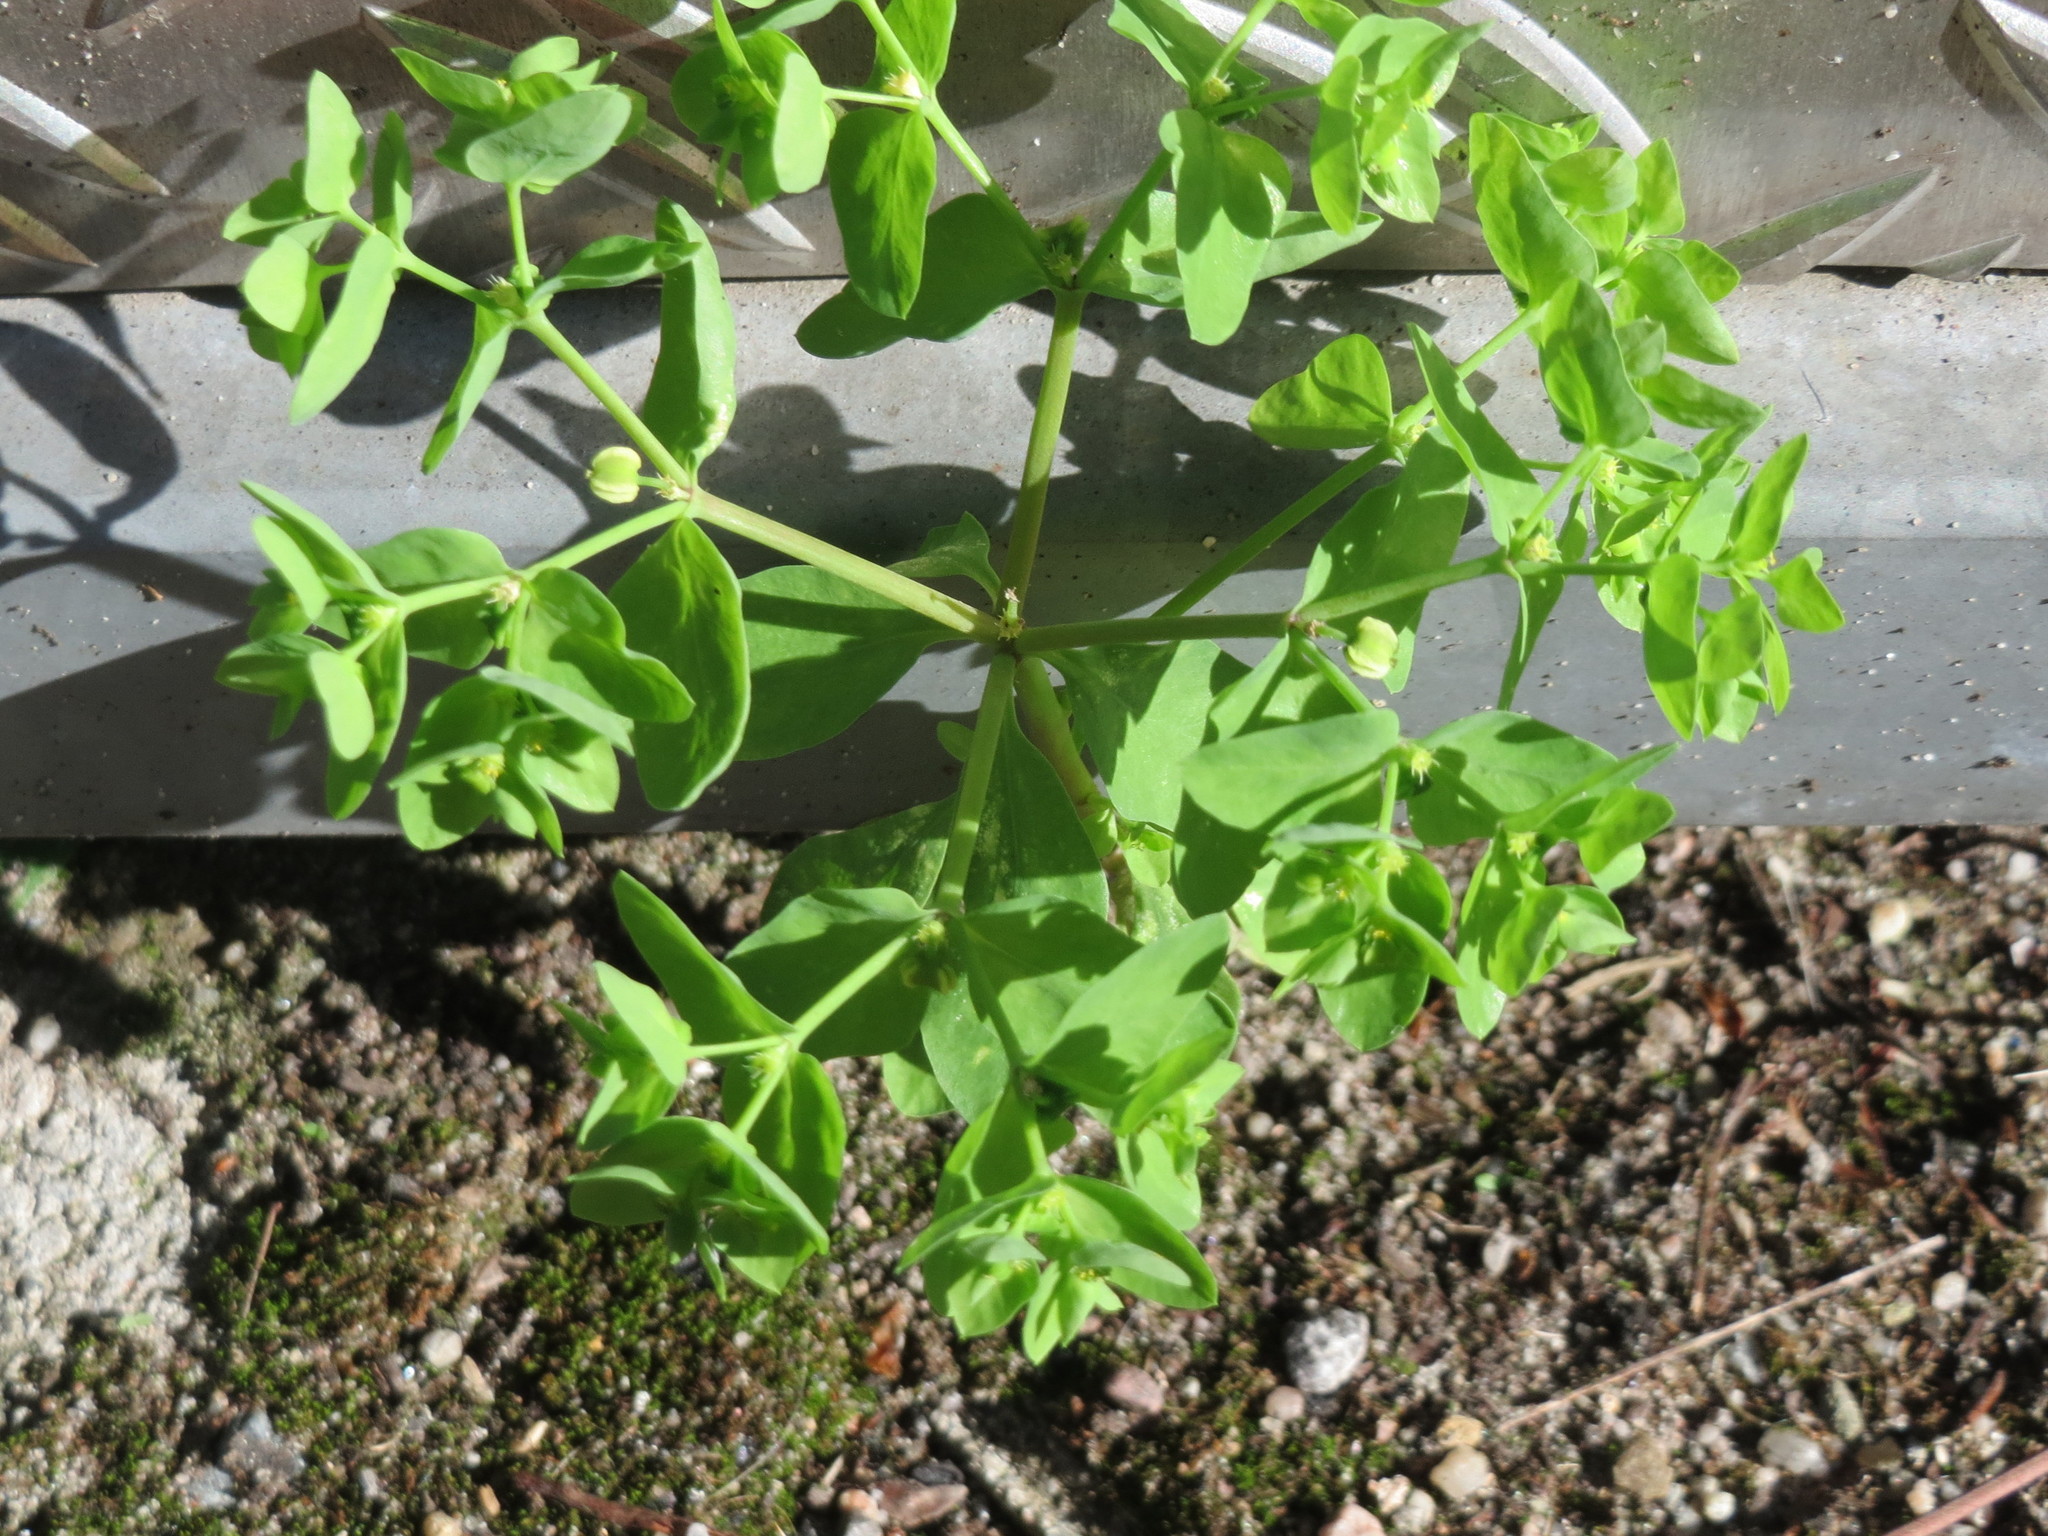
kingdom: Plantae
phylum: Tracheophyta
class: Magnoliopsida
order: Malpighiales
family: Euphorbiaceae
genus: Euphorbia
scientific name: Euphorbia peplus
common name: Petty spurge
